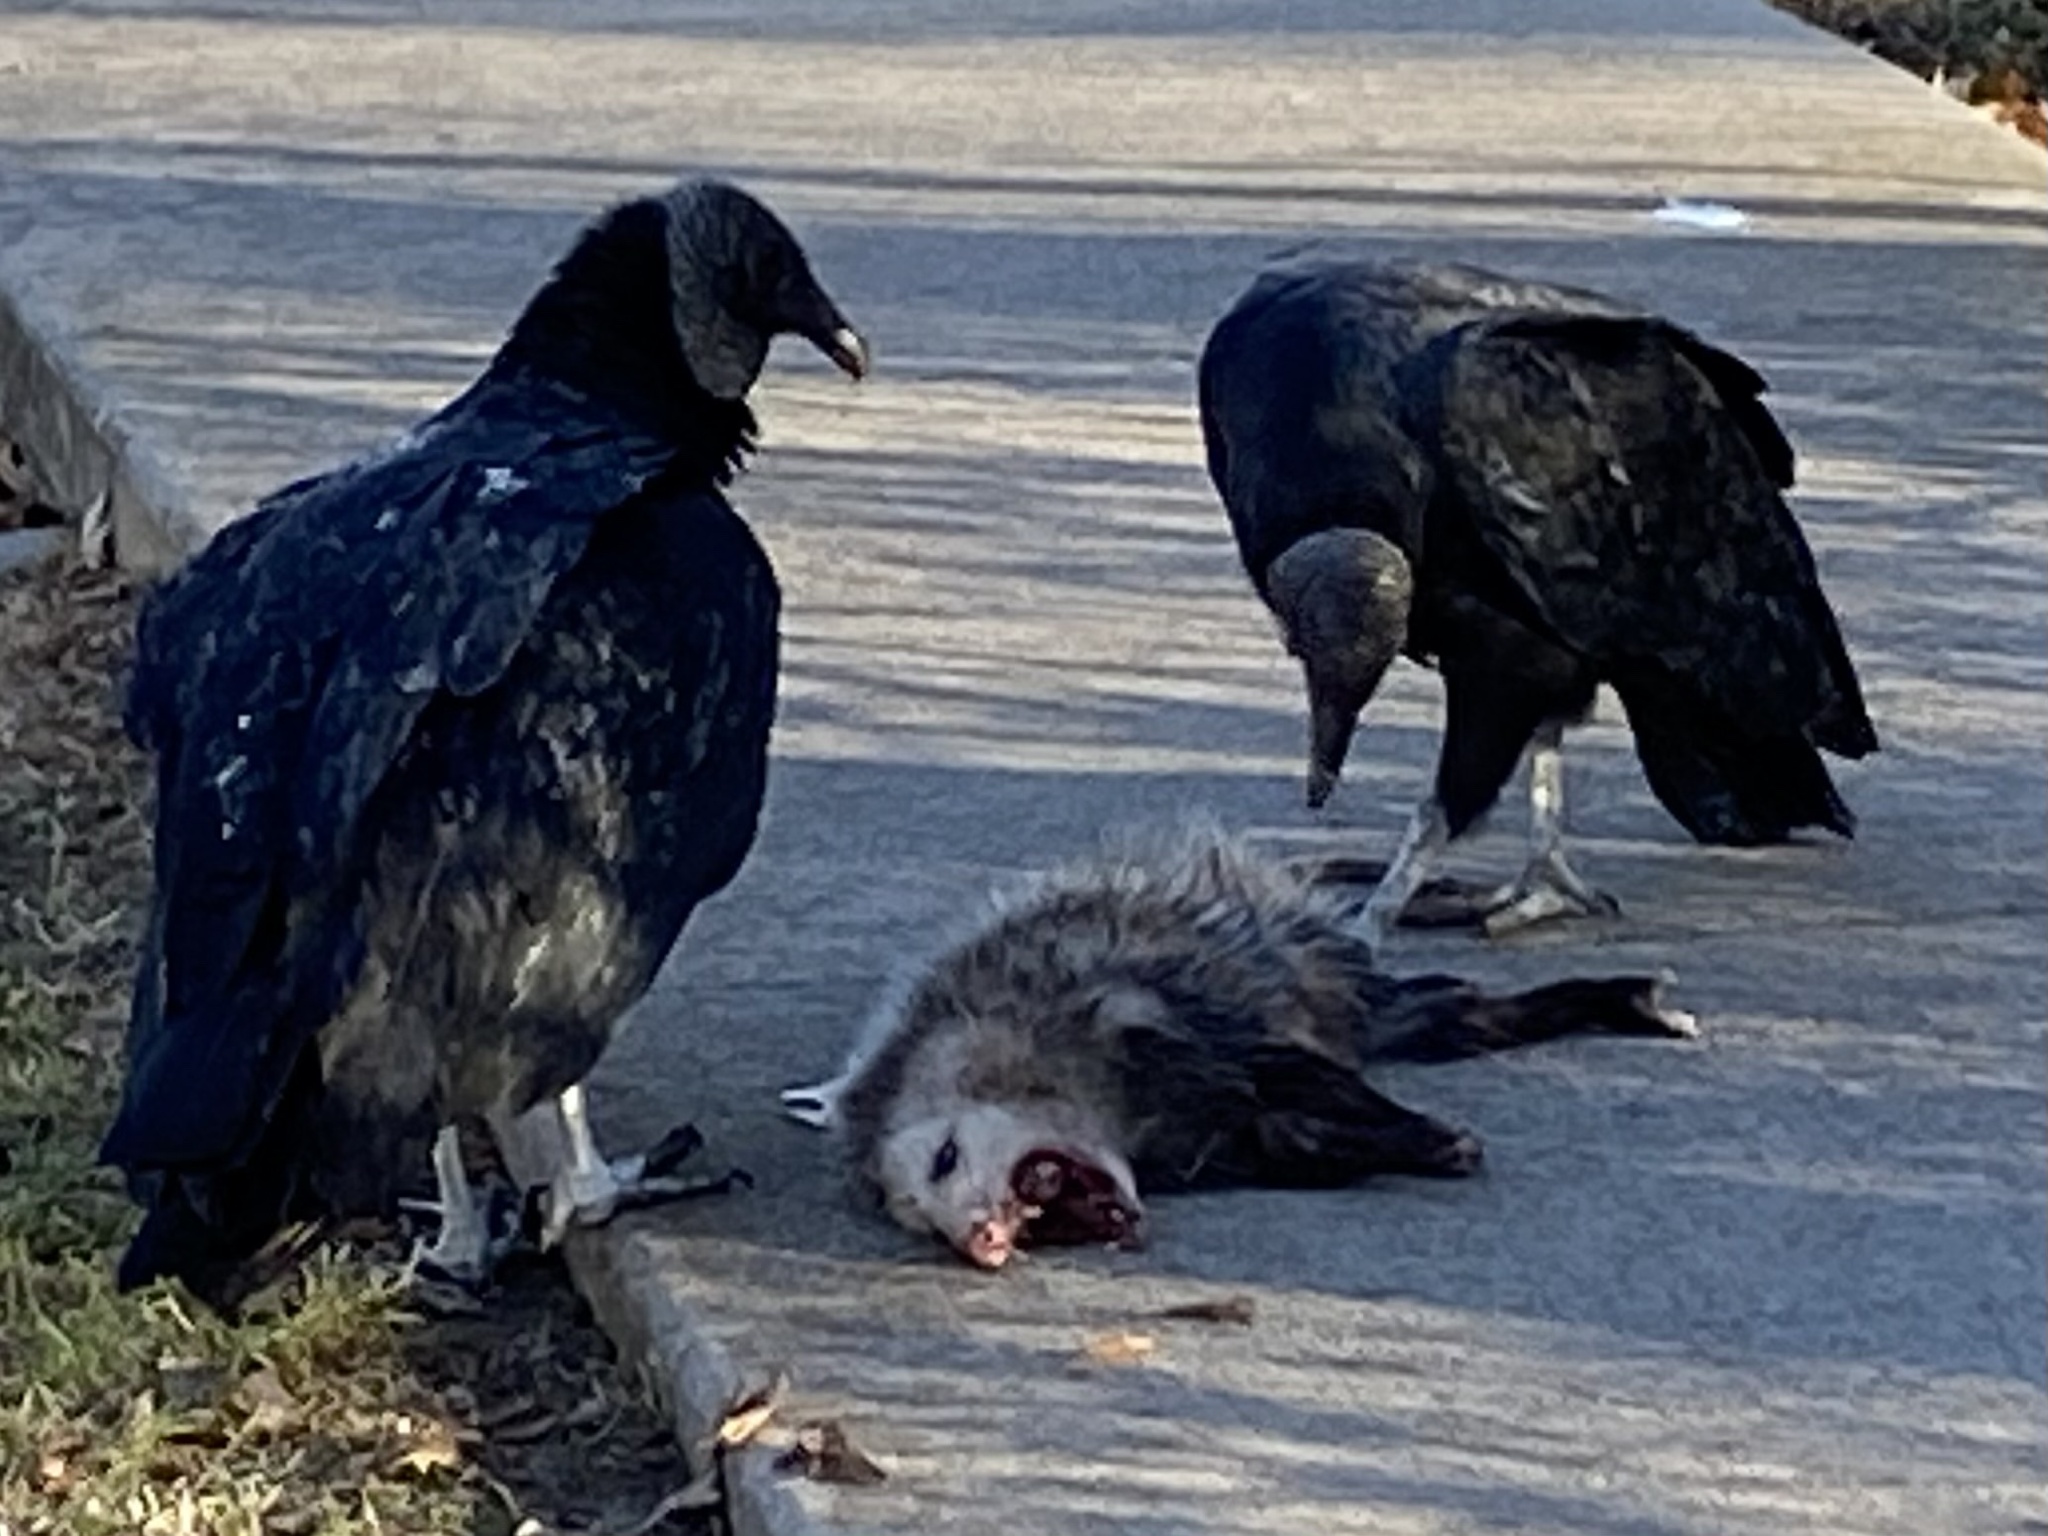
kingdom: Animalia
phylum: Chordata
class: Aves
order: Accipitriformes
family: Cathartidae
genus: Coragyps
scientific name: Coragyps atratus
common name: Black vulture
